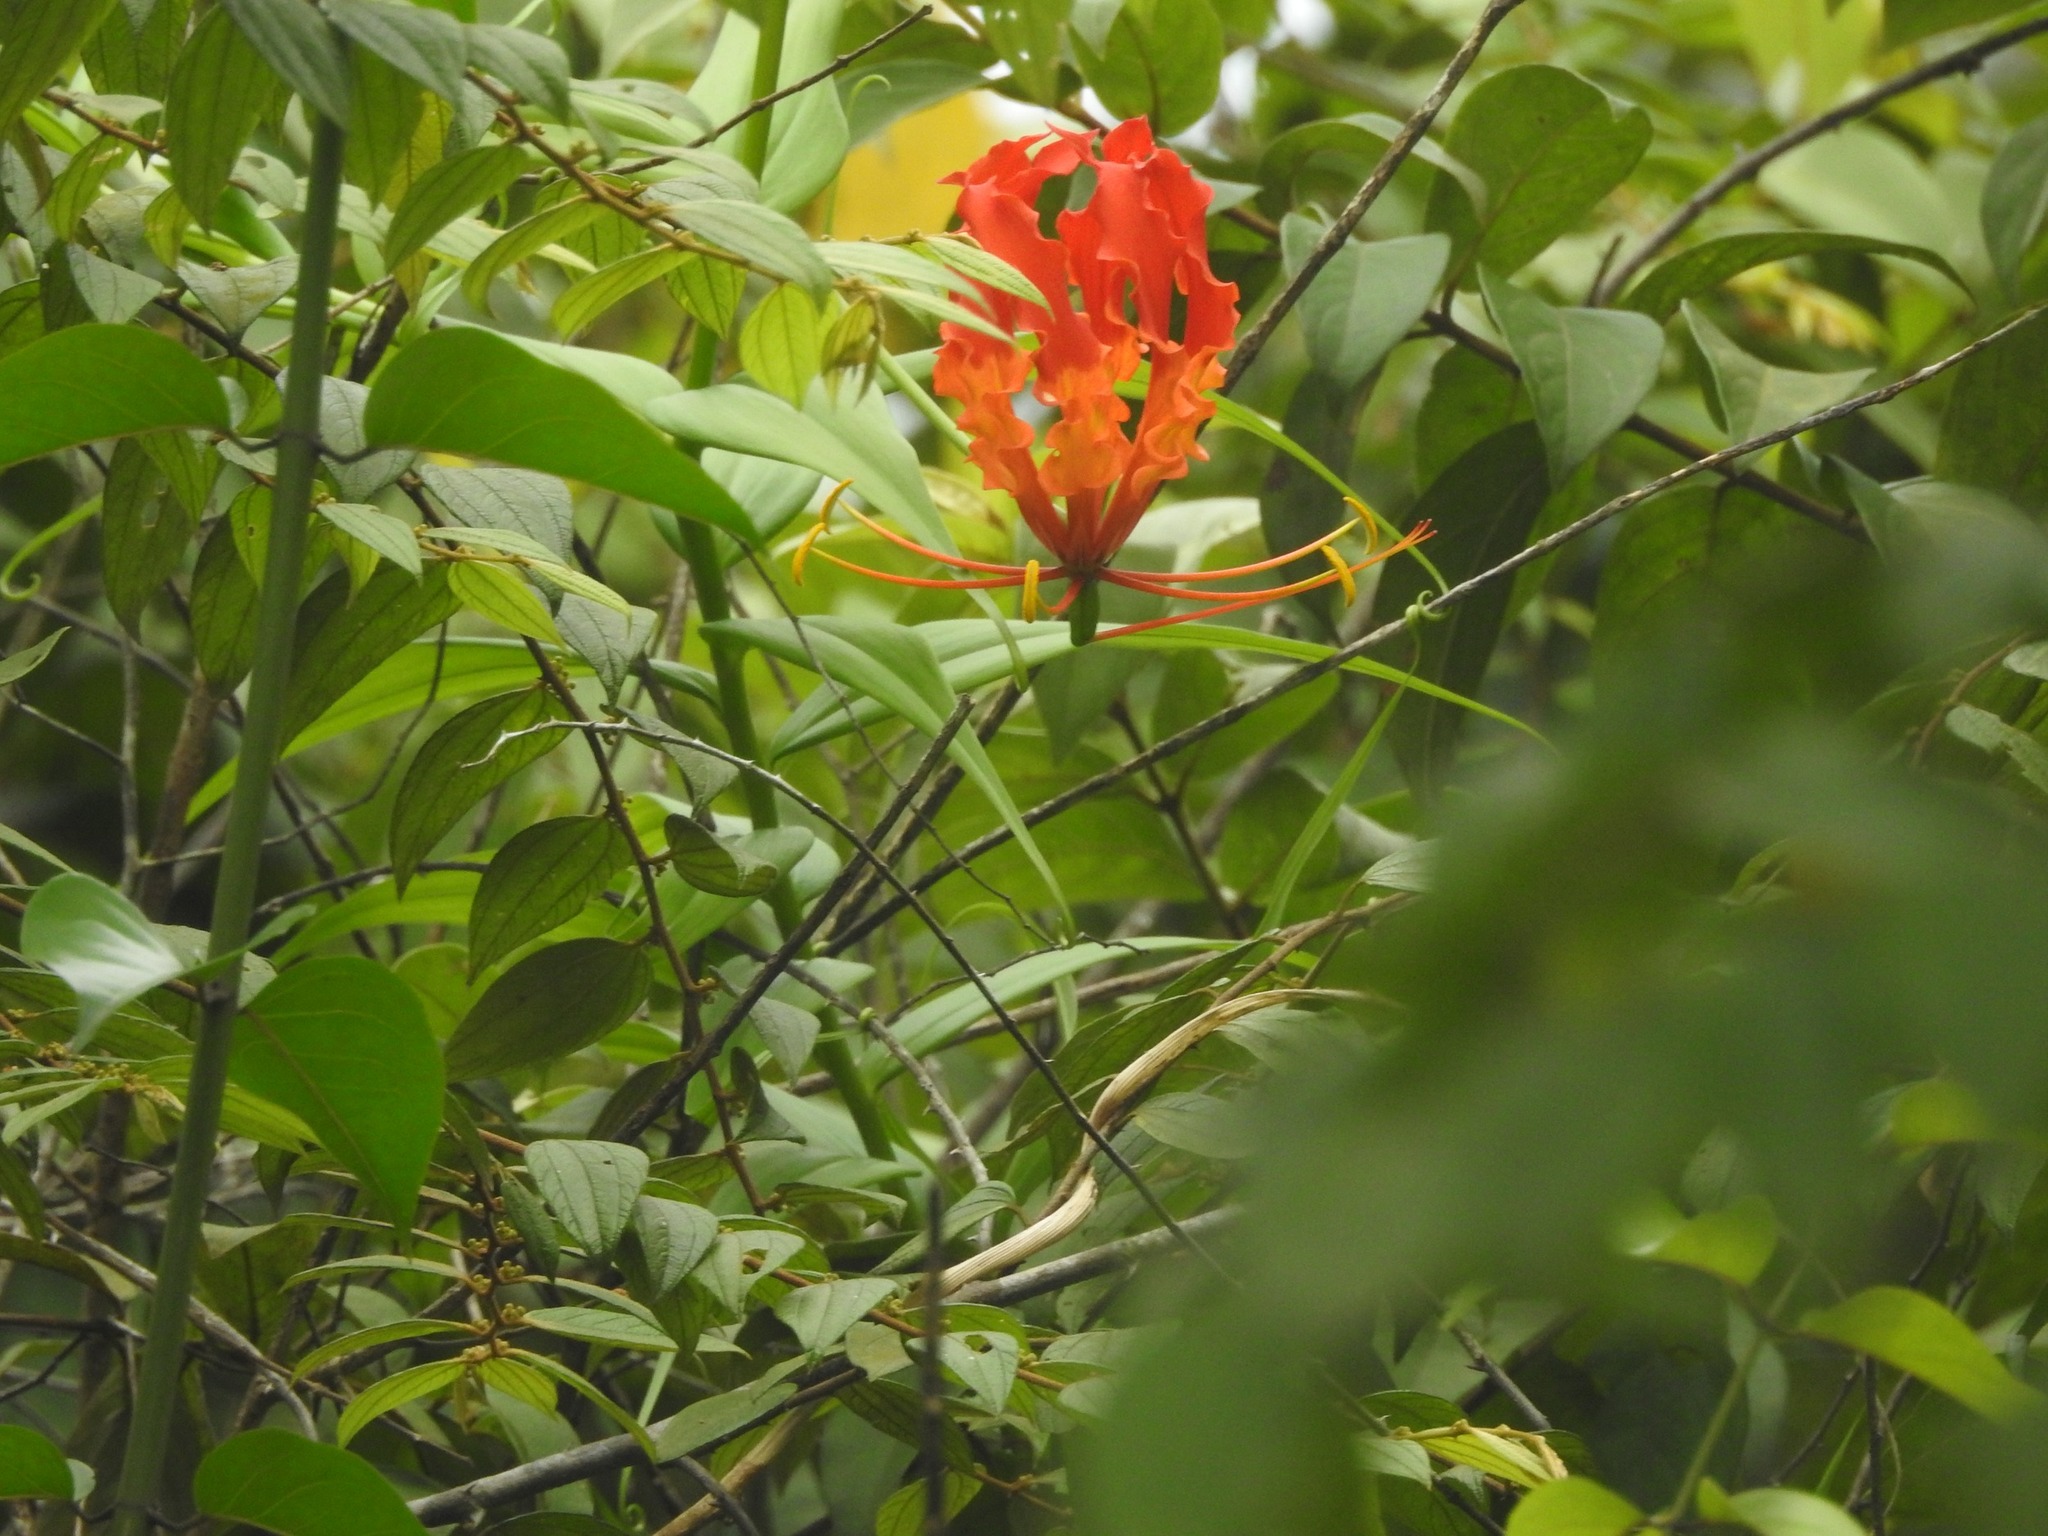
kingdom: Plantae
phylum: Tracheophyta
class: Liliopsida
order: Liliales
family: Colchicaceae
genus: Gloriosa
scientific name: Gloriosa superba
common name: Flame lily
